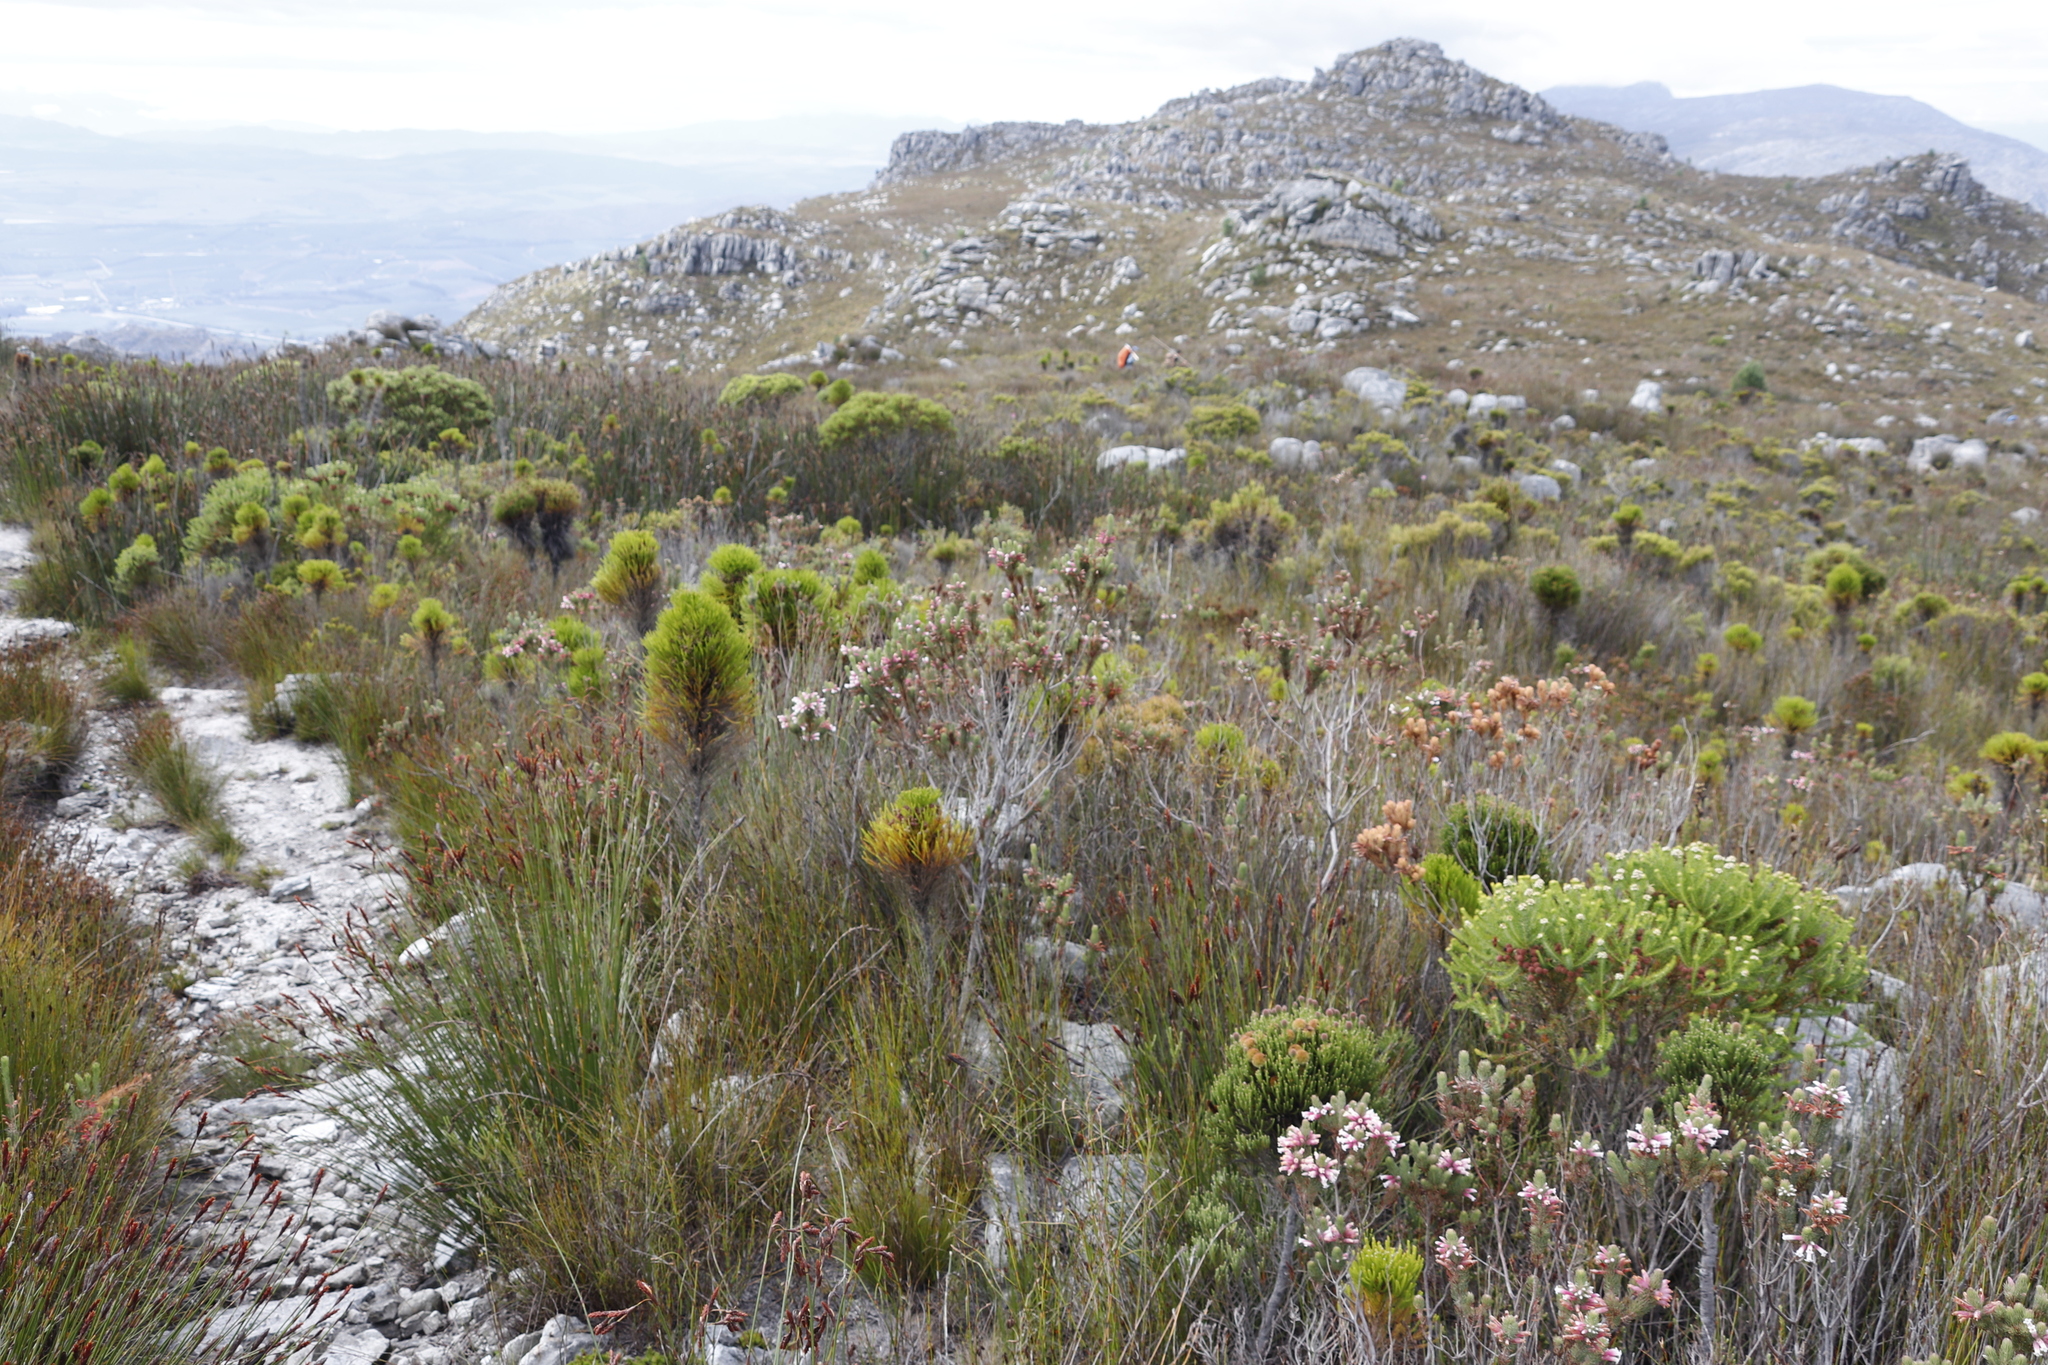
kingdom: Plantae
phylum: Tracheophyta
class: Liliopsida
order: Poales
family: Restionaceae
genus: Elegia
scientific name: Elegia mucronata
